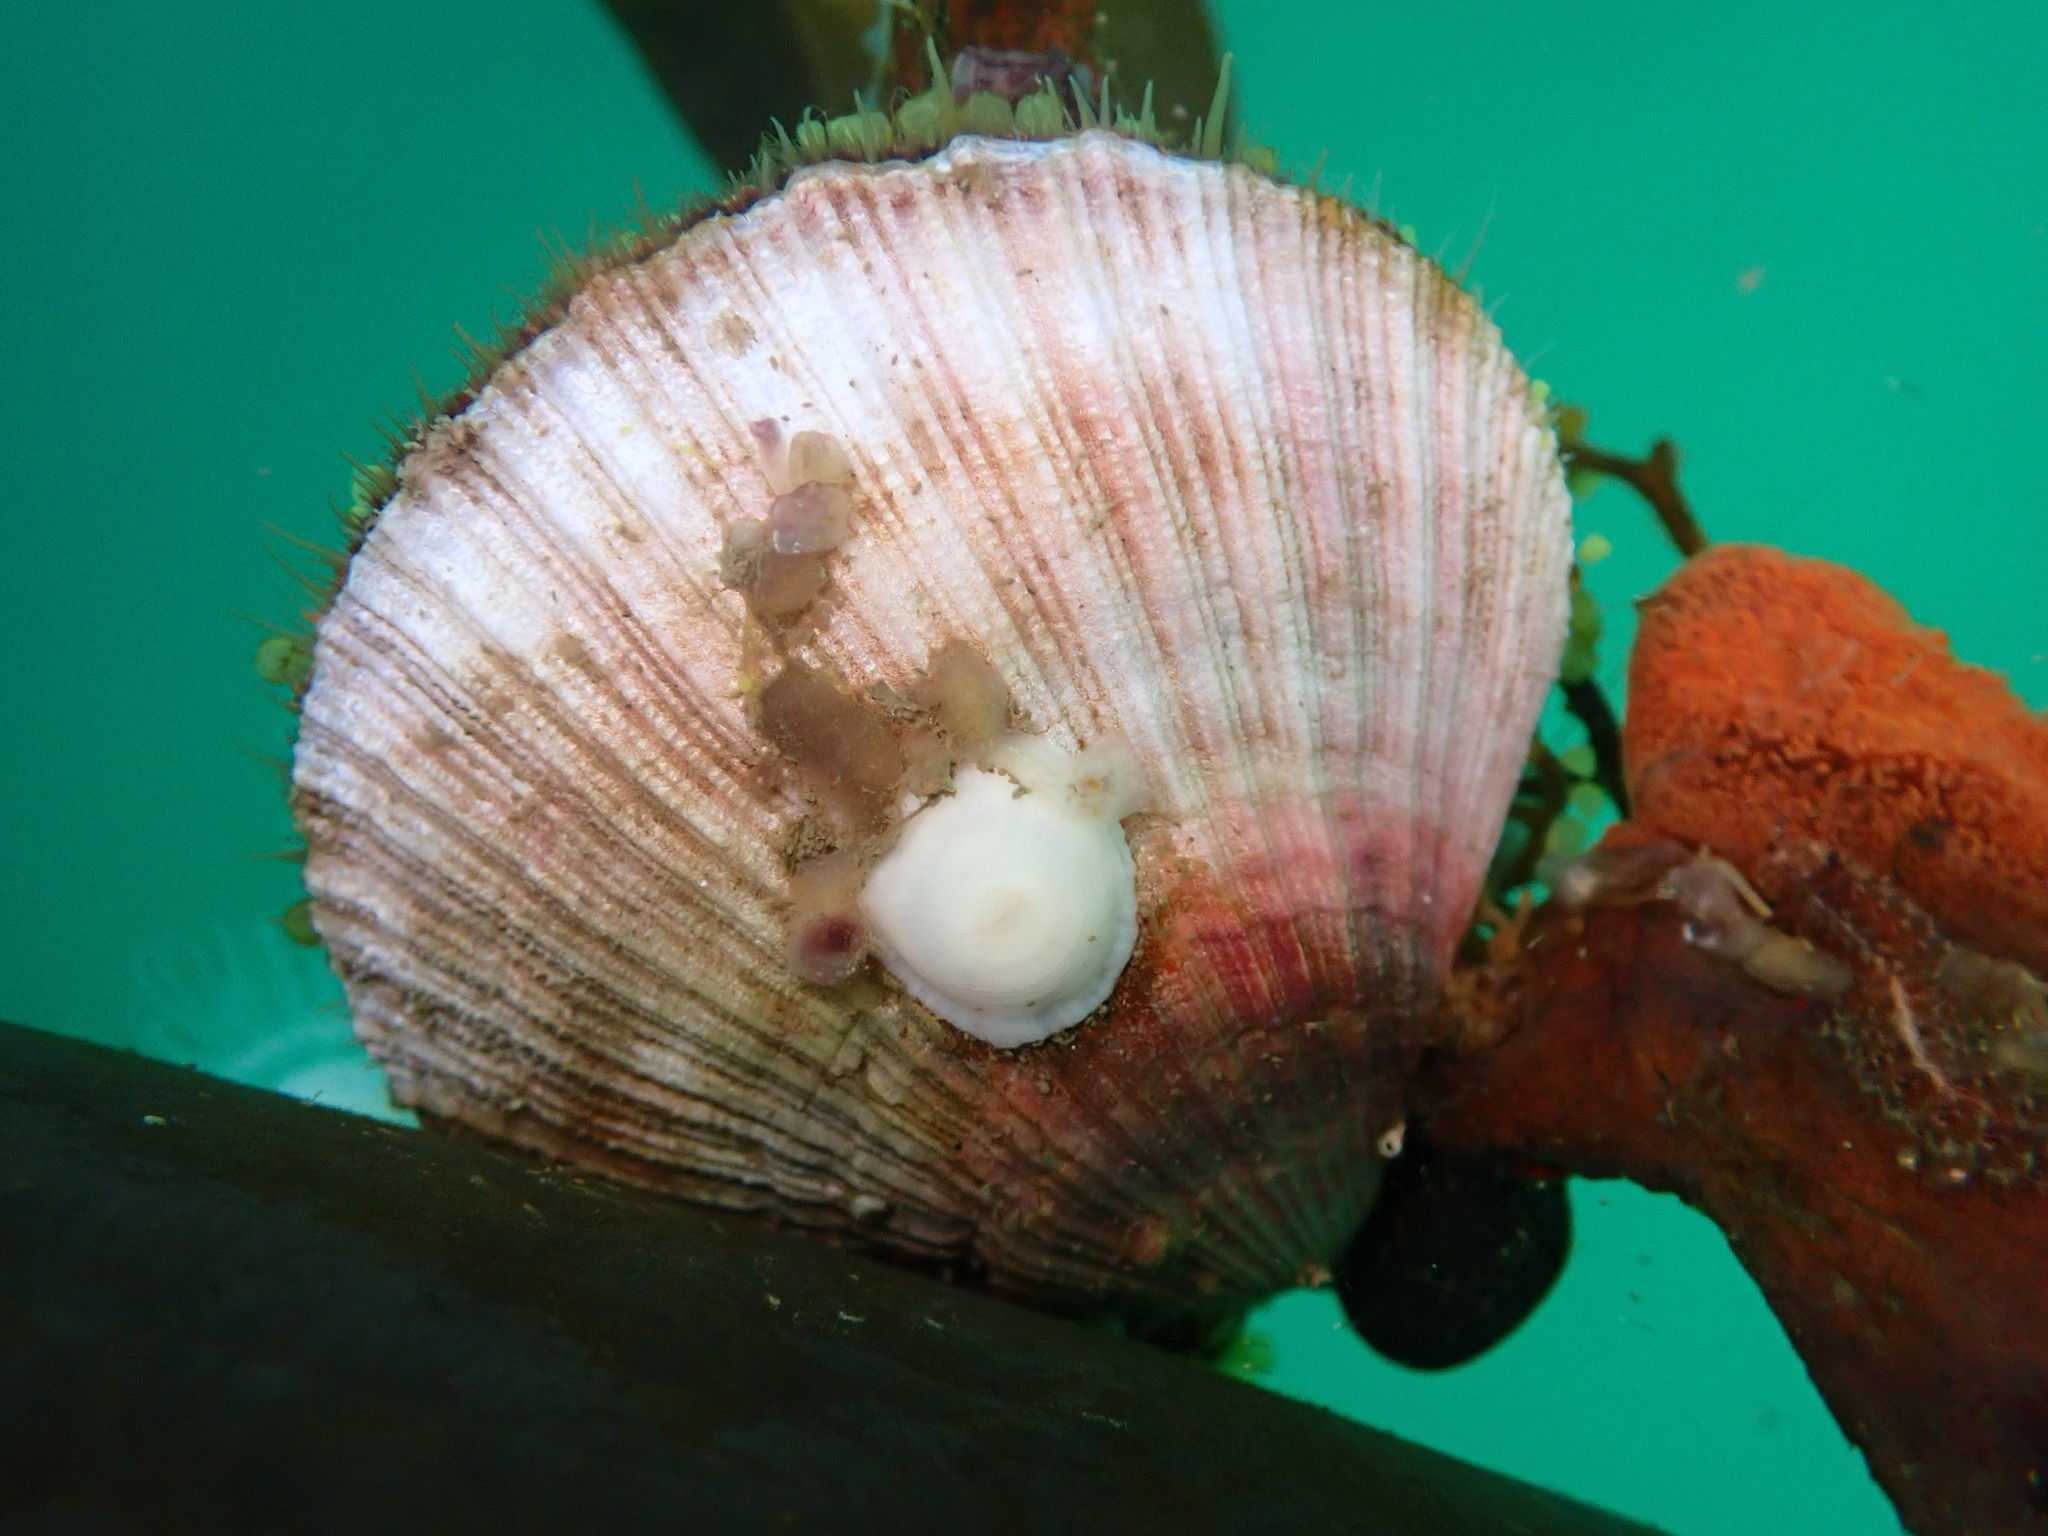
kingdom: Animalia
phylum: Mollusca
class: Bivalvia
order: Pectinida
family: Pectinidae
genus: Chlamys
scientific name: Chlamys hastata
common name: Spear scallop
